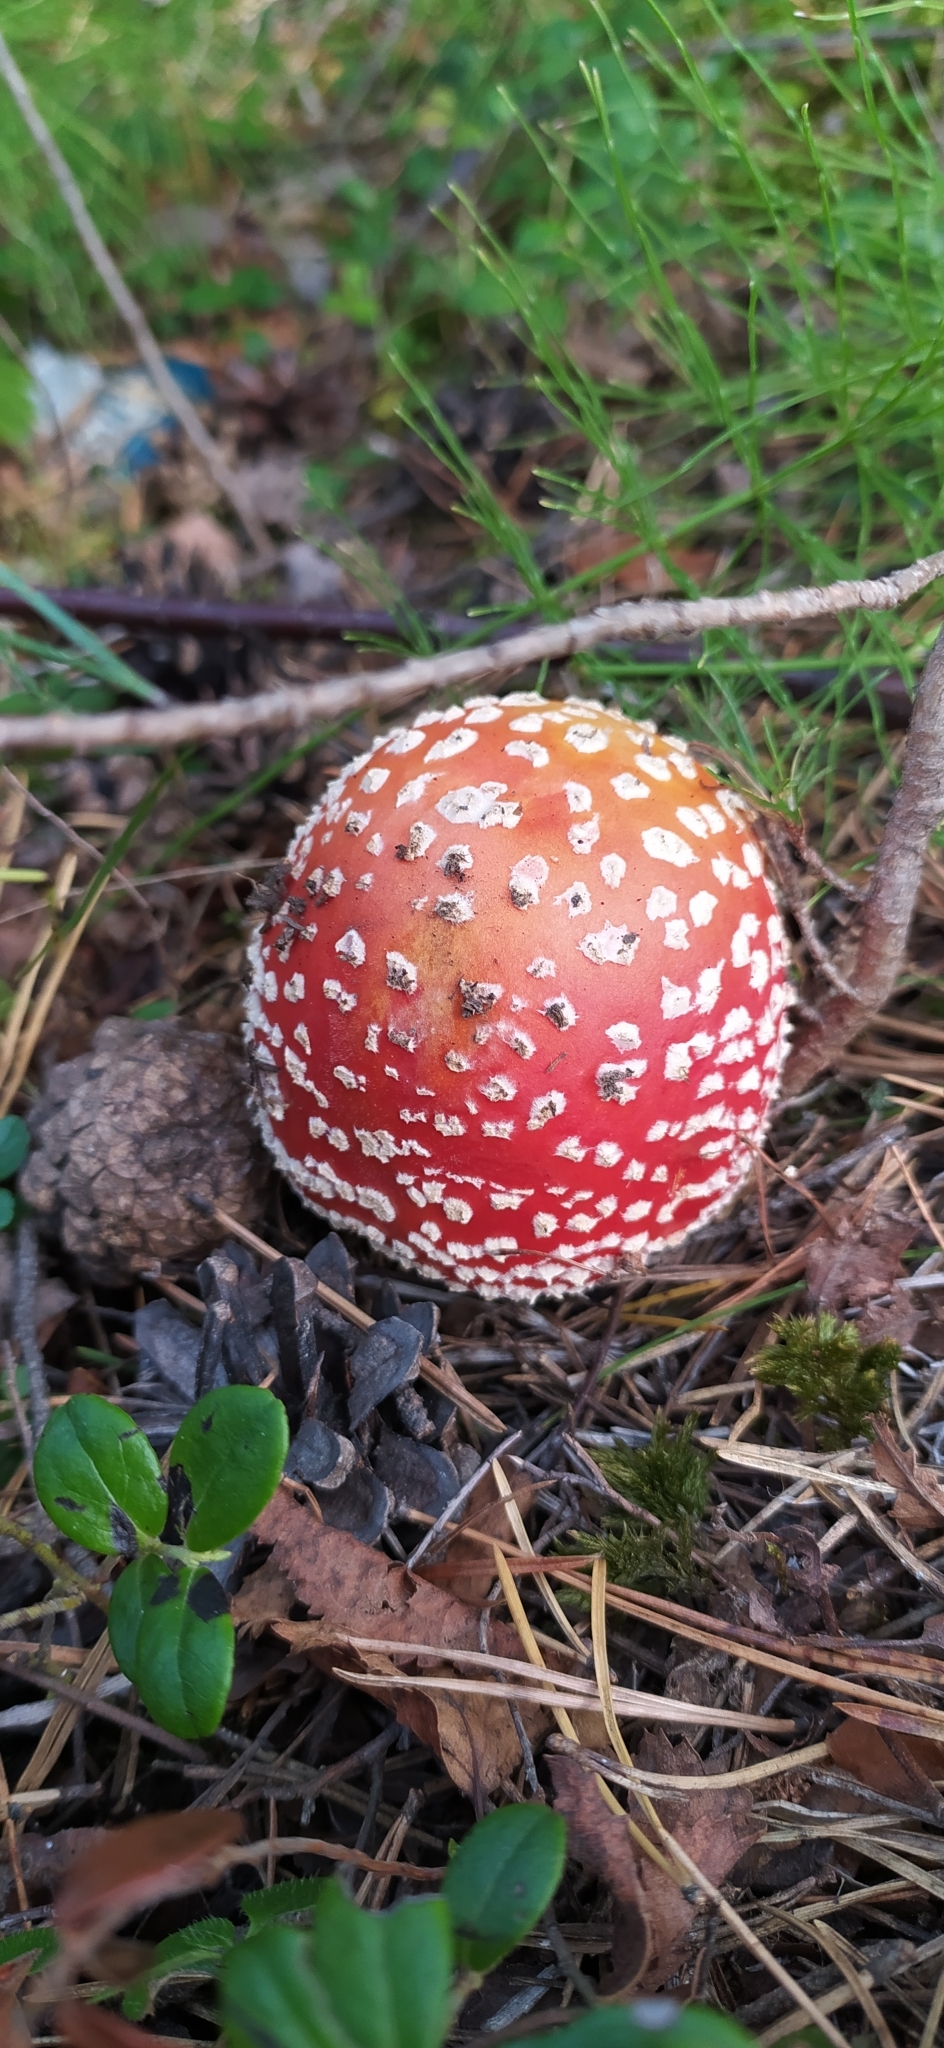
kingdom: Fungi
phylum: Basidiomycota
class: Agaricomycetes
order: Agaricales
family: Amanitaceae
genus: Amanita
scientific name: Amanita muscaria
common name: Fly agaric
